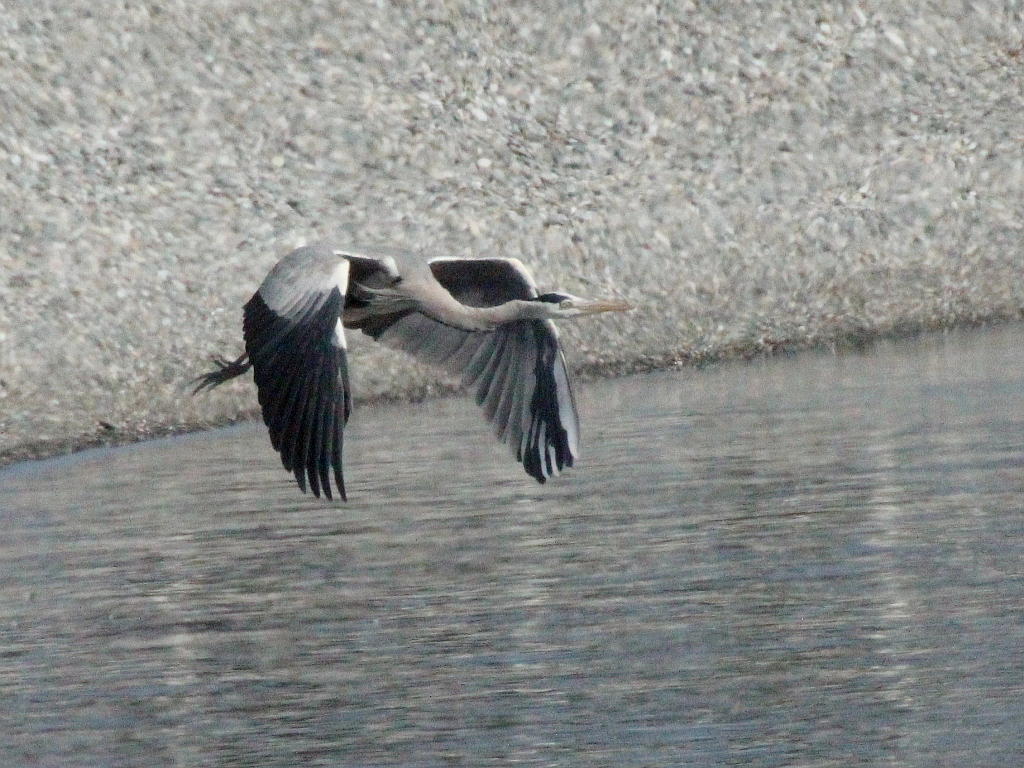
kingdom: Animalia
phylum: Chordata
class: Aves
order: Pelecaniformes
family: Ardeidae
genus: Ardea
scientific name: Ardea cinerea
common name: Grey heron
